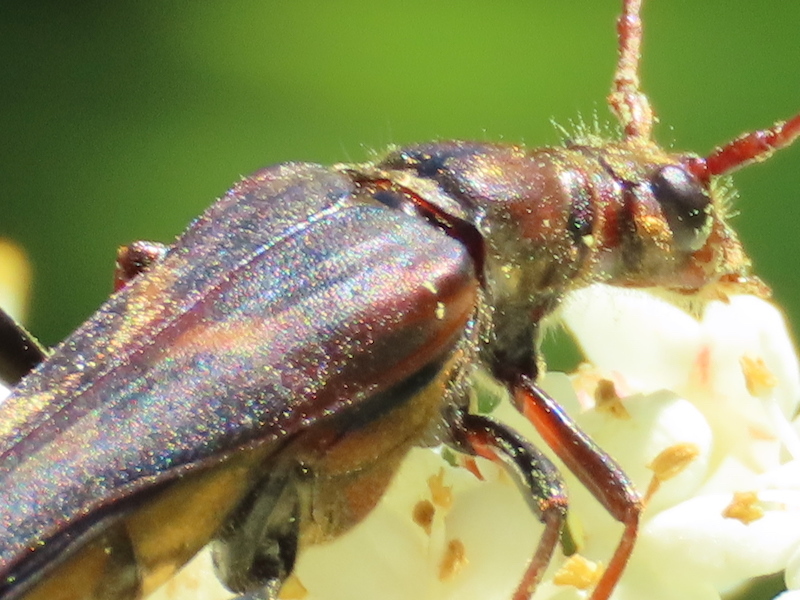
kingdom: Animalia
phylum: Arthropoda
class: Insecta
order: Coleoptera
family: Cerambycidae
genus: Bellamira
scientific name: Bellamira scalaris
